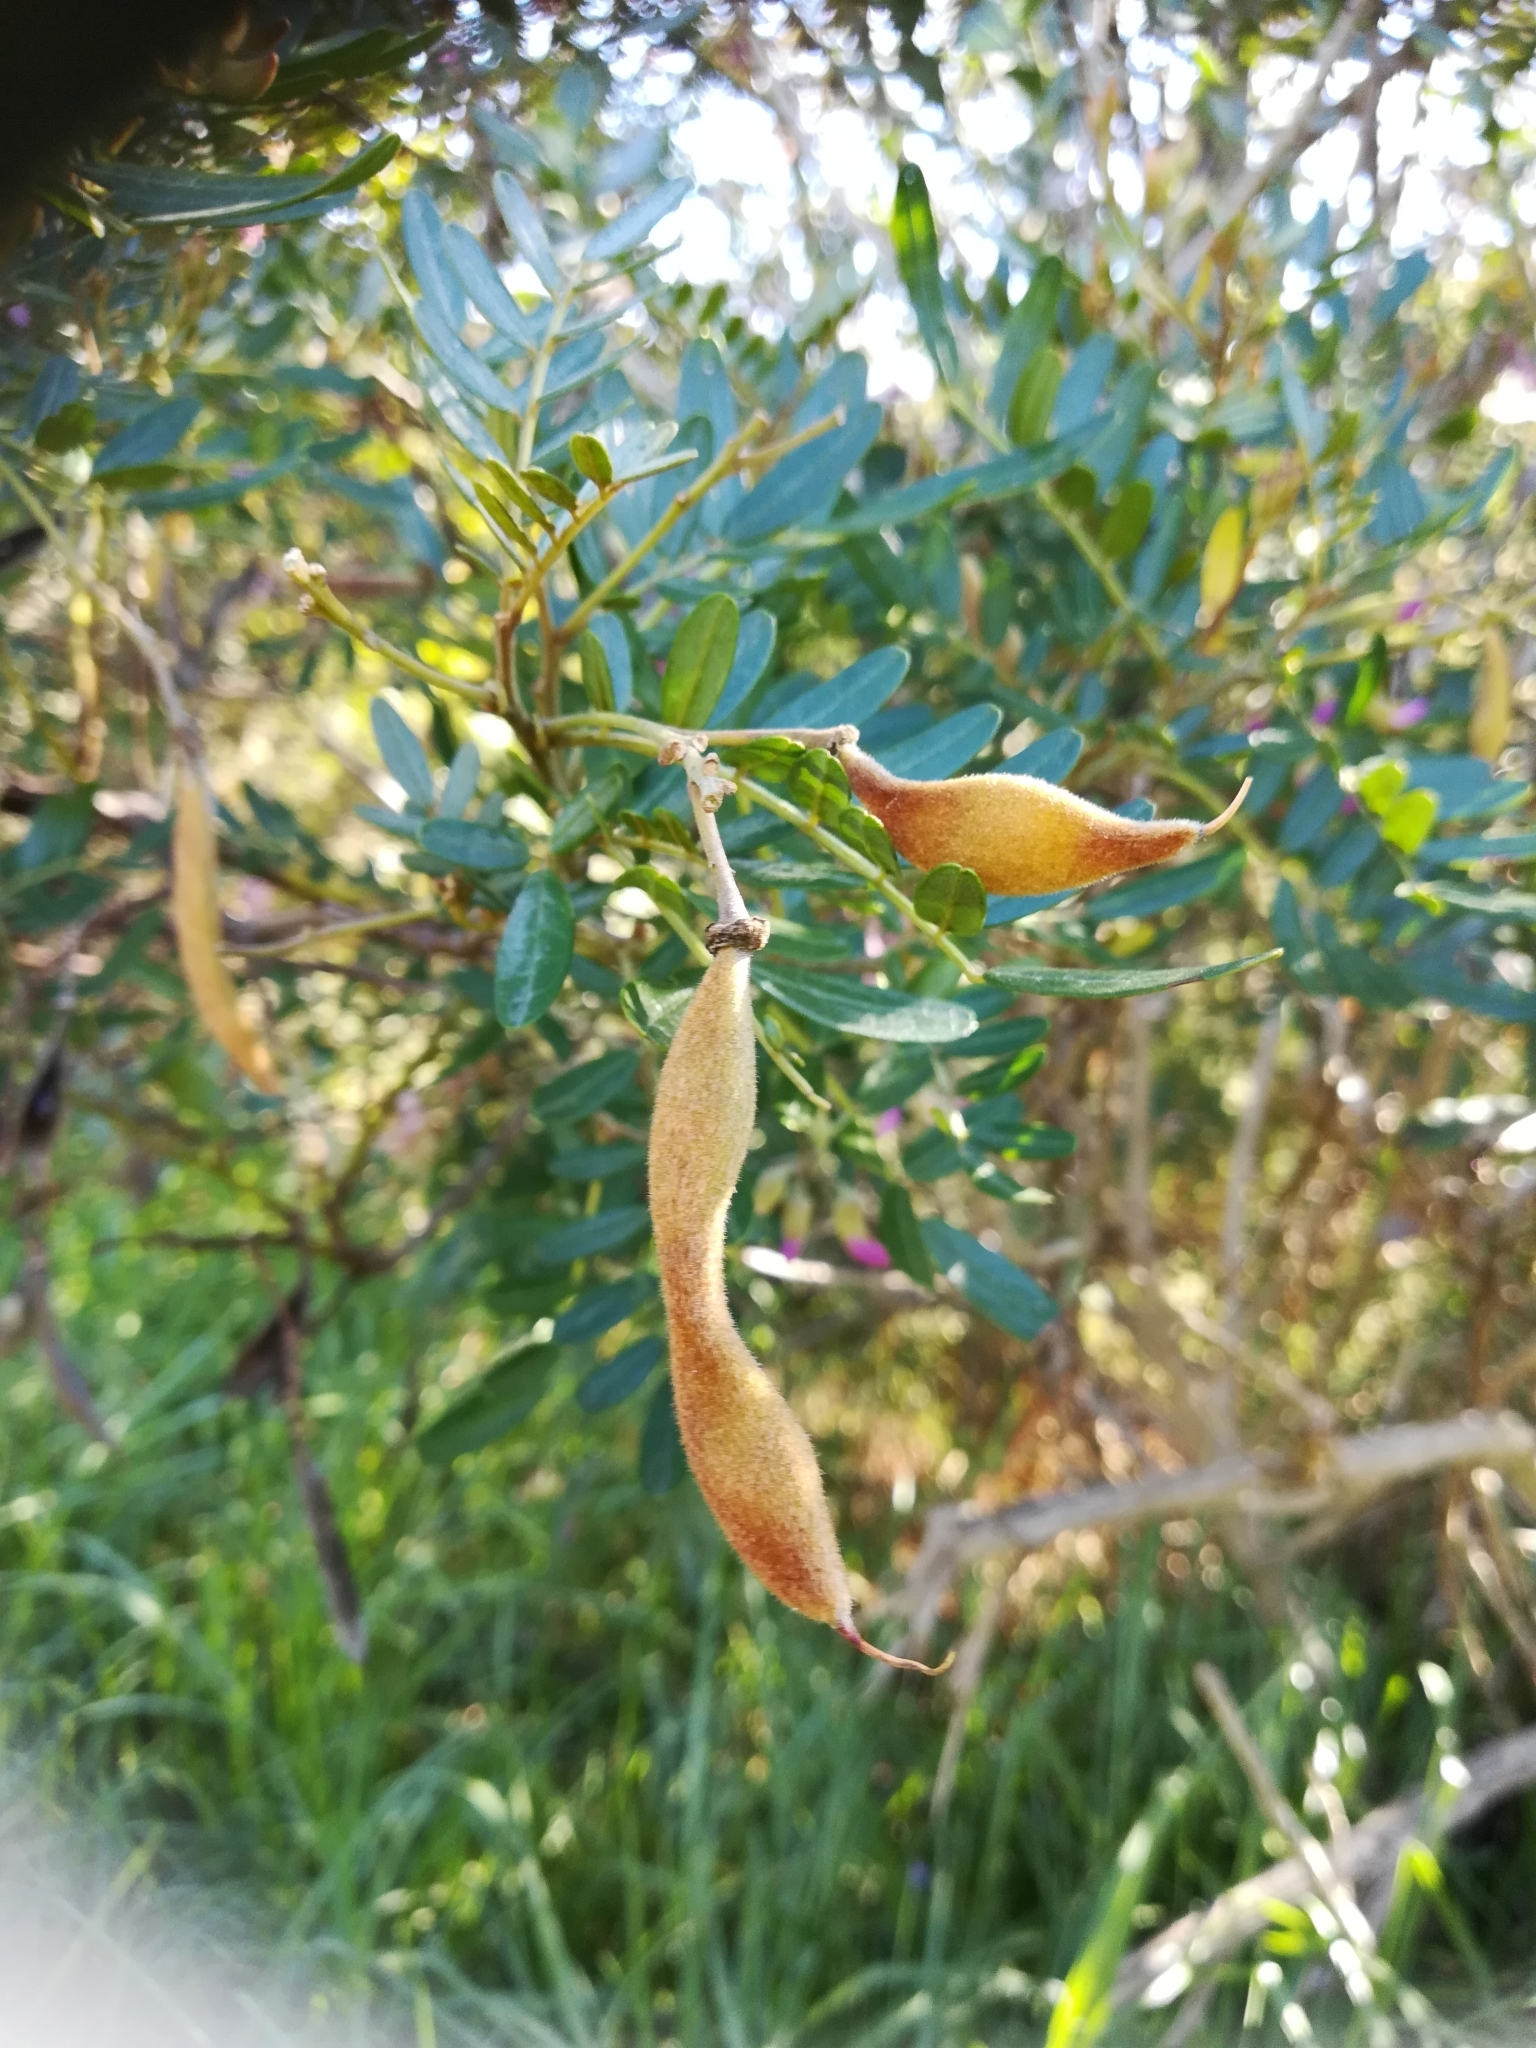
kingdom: Plantae
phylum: Tracheophyta
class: Magnoliopsida
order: Fabales
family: Fabaceae
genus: Virgilia
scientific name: Virgilia oroboides
